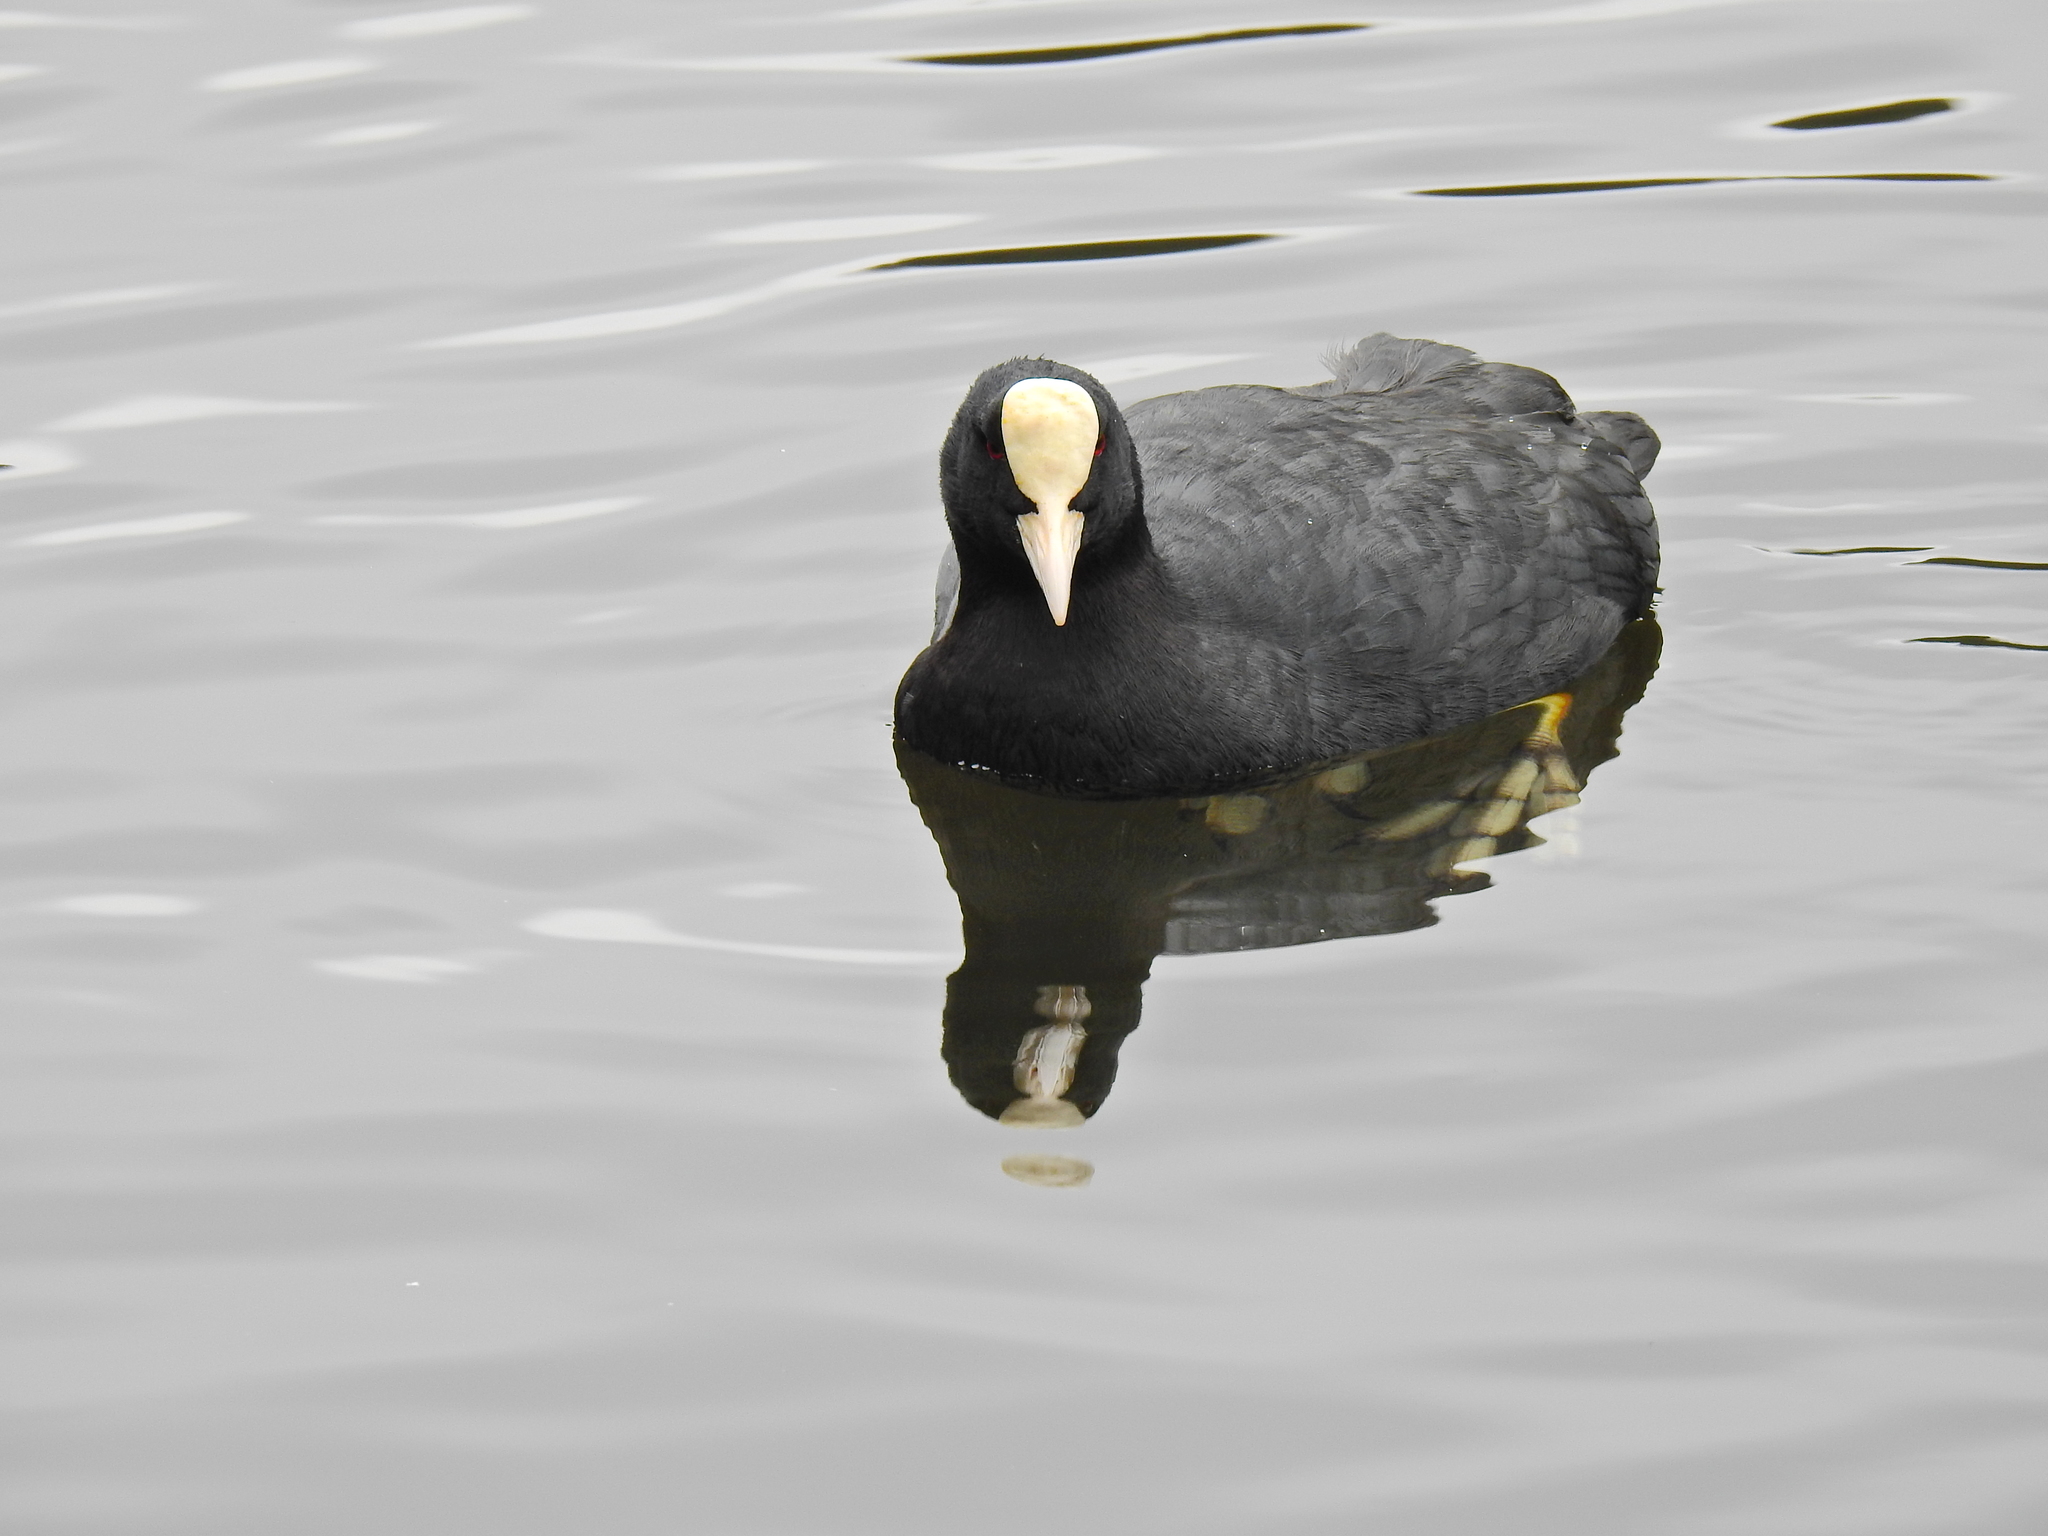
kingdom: Animalia
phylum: Chordata
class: Aves
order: Gruiformes
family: Rallidae
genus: Fulica
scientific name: Fulica atra
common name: Eurasian coot
